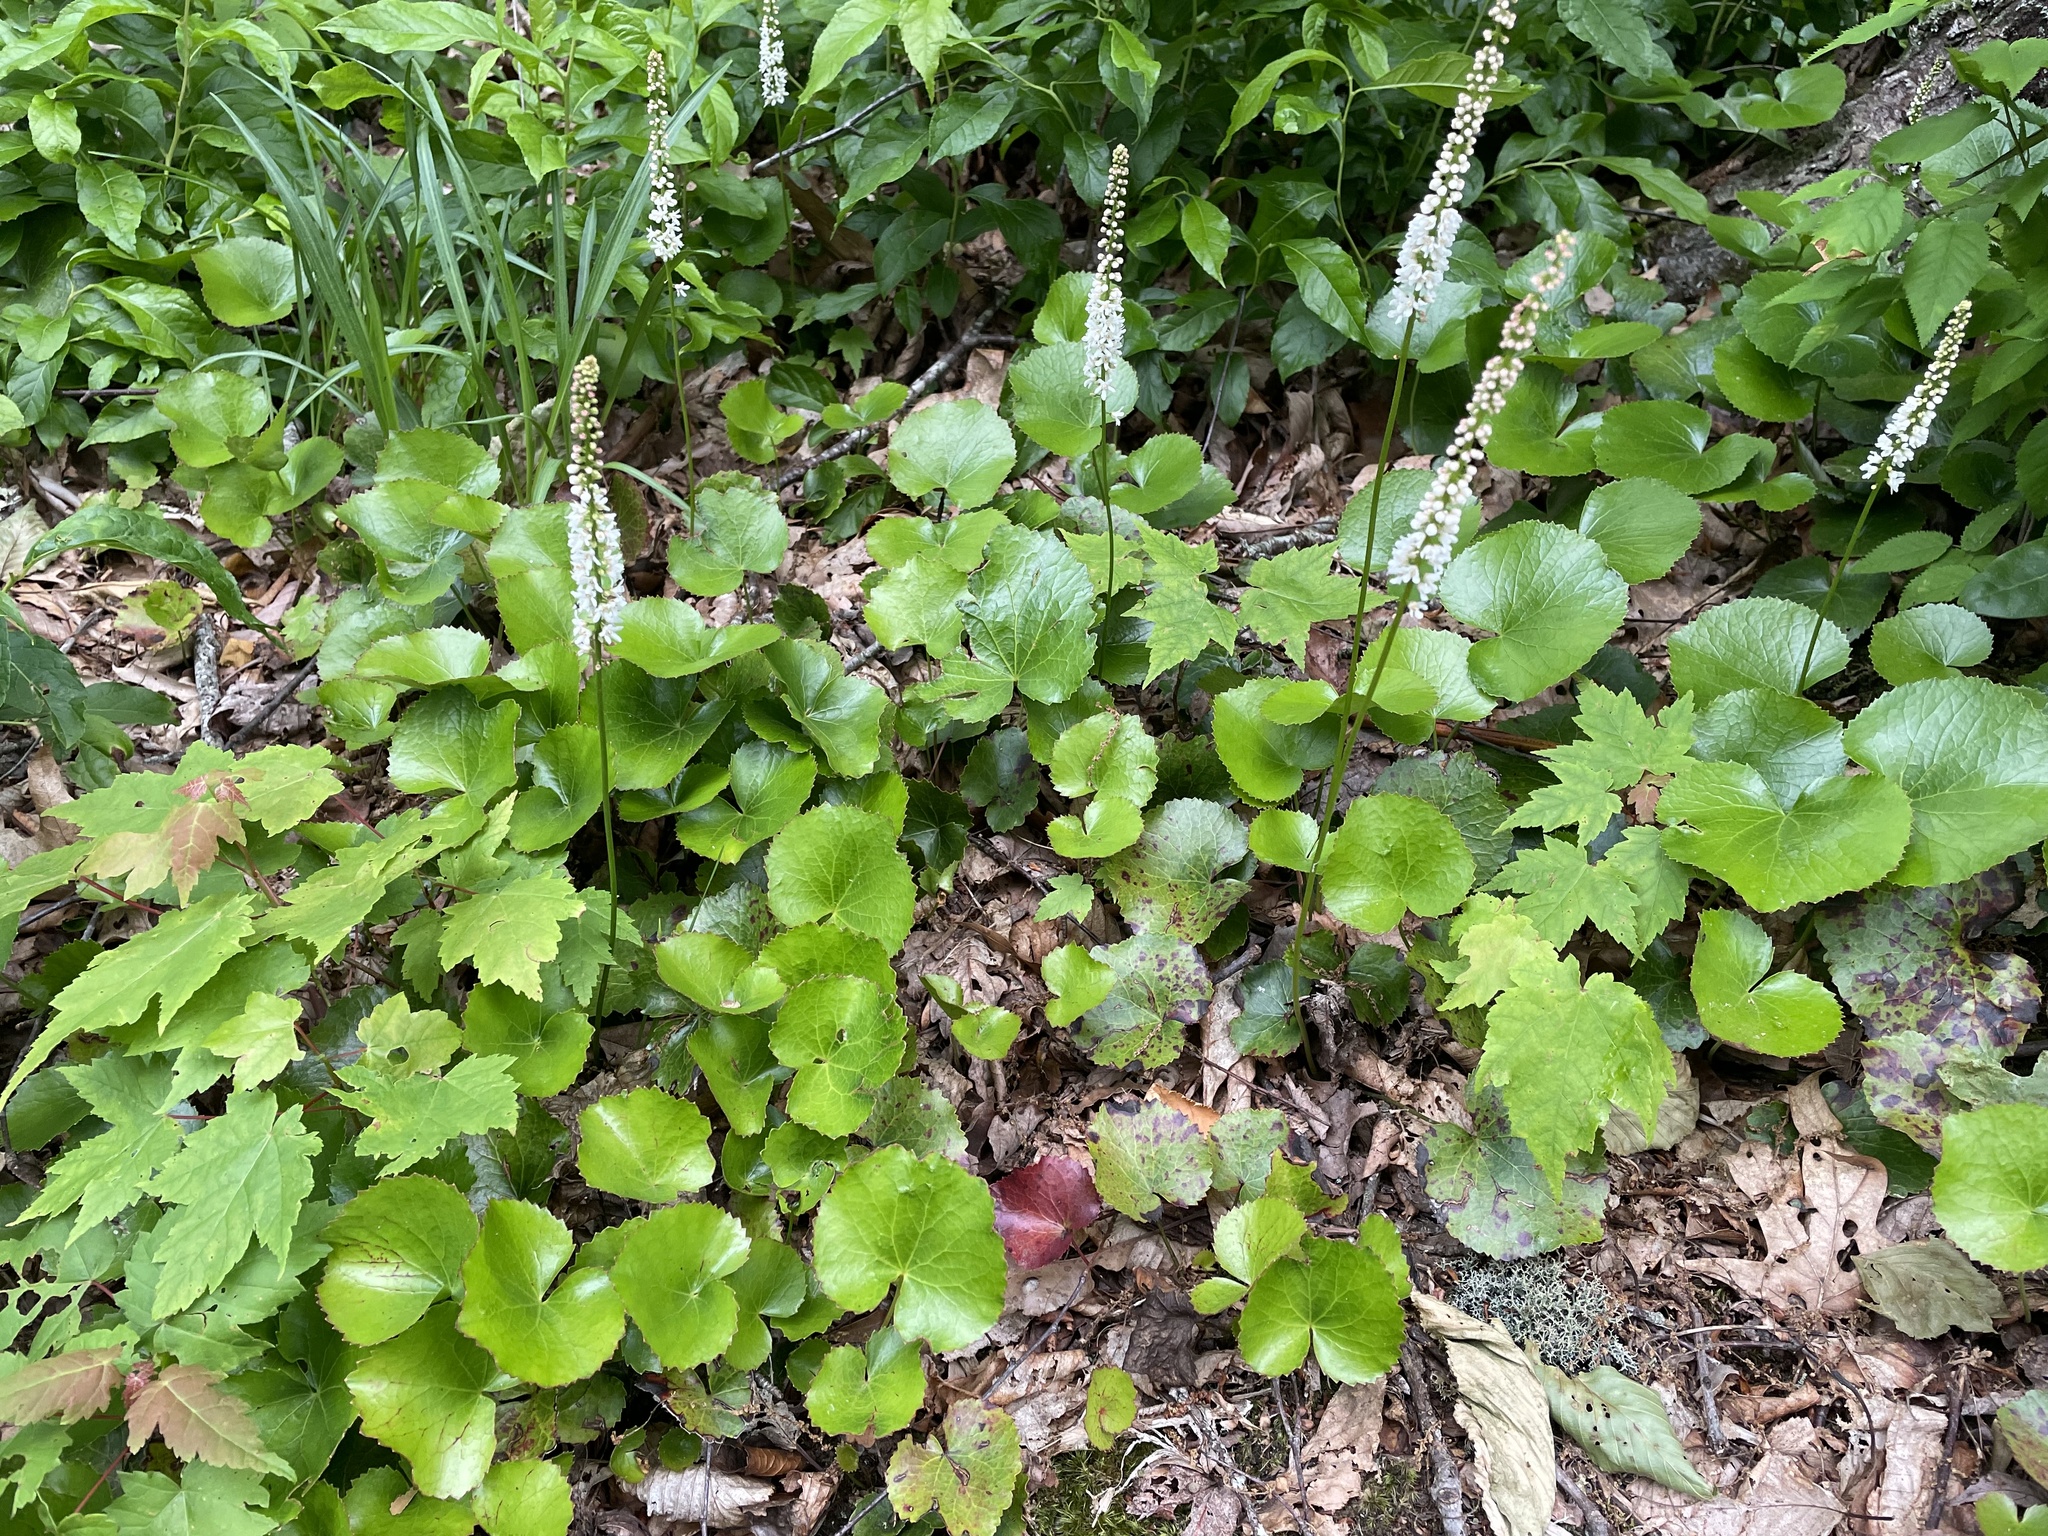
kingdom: Plantae
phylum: Tracheophyta
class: Magnoliopsida
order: Ericales
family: Diapensiaceae
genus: Galax
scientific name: Galax urceolata
